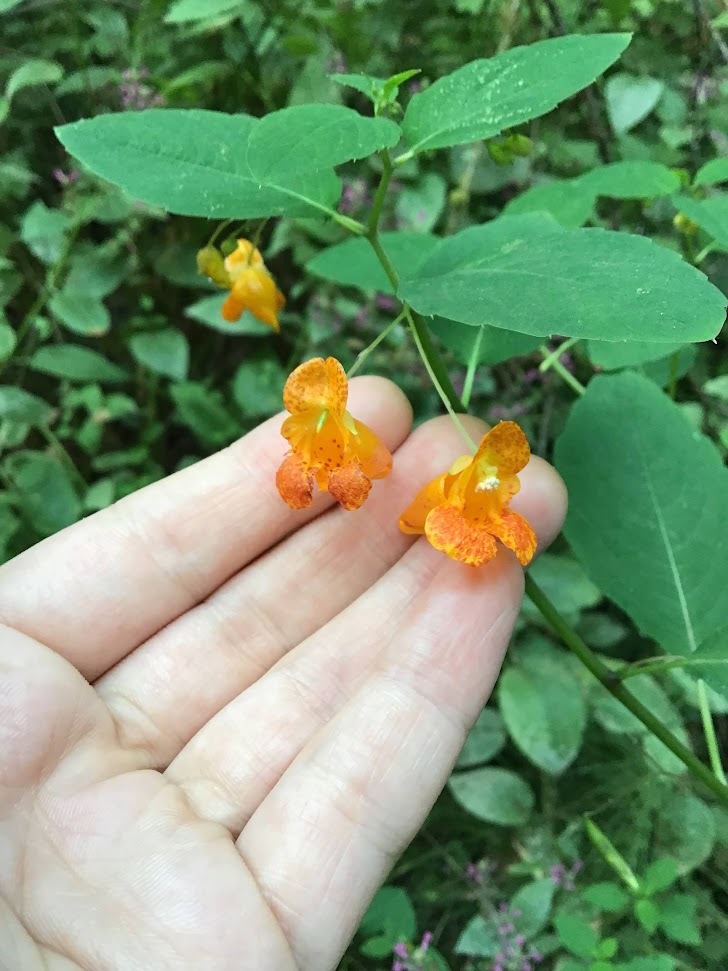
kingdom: Plantae
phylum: Tracheophyta
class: Magnoliopsida
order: Ericales
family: Balsaminaceae
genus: Impatiens
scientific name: Impatiens capensis
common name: Orange balsam
